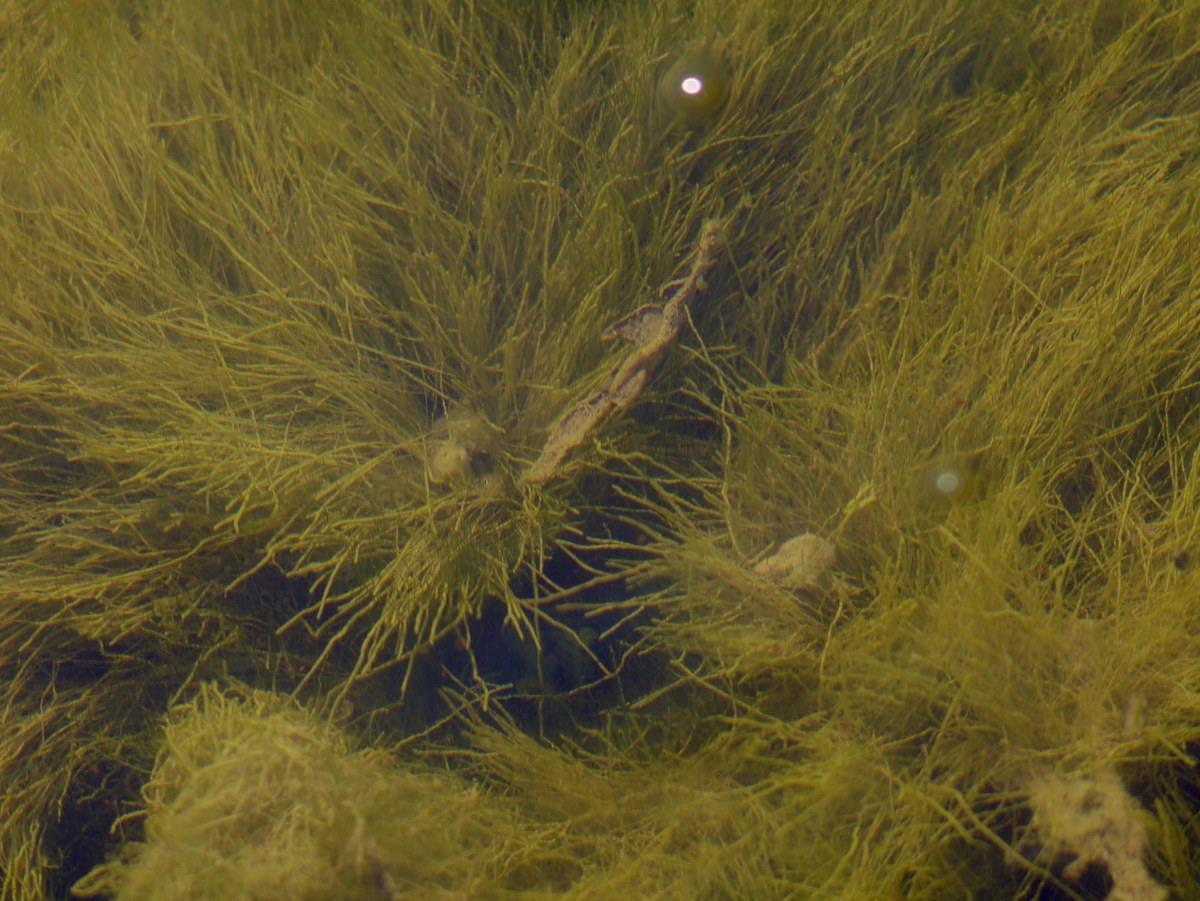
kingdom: Chromista
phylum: Ochrophyta
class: Xanthophyceae
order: Vaucheriales
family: Vaucheriaceae
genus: Vaucheria
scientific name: Vaucheria
